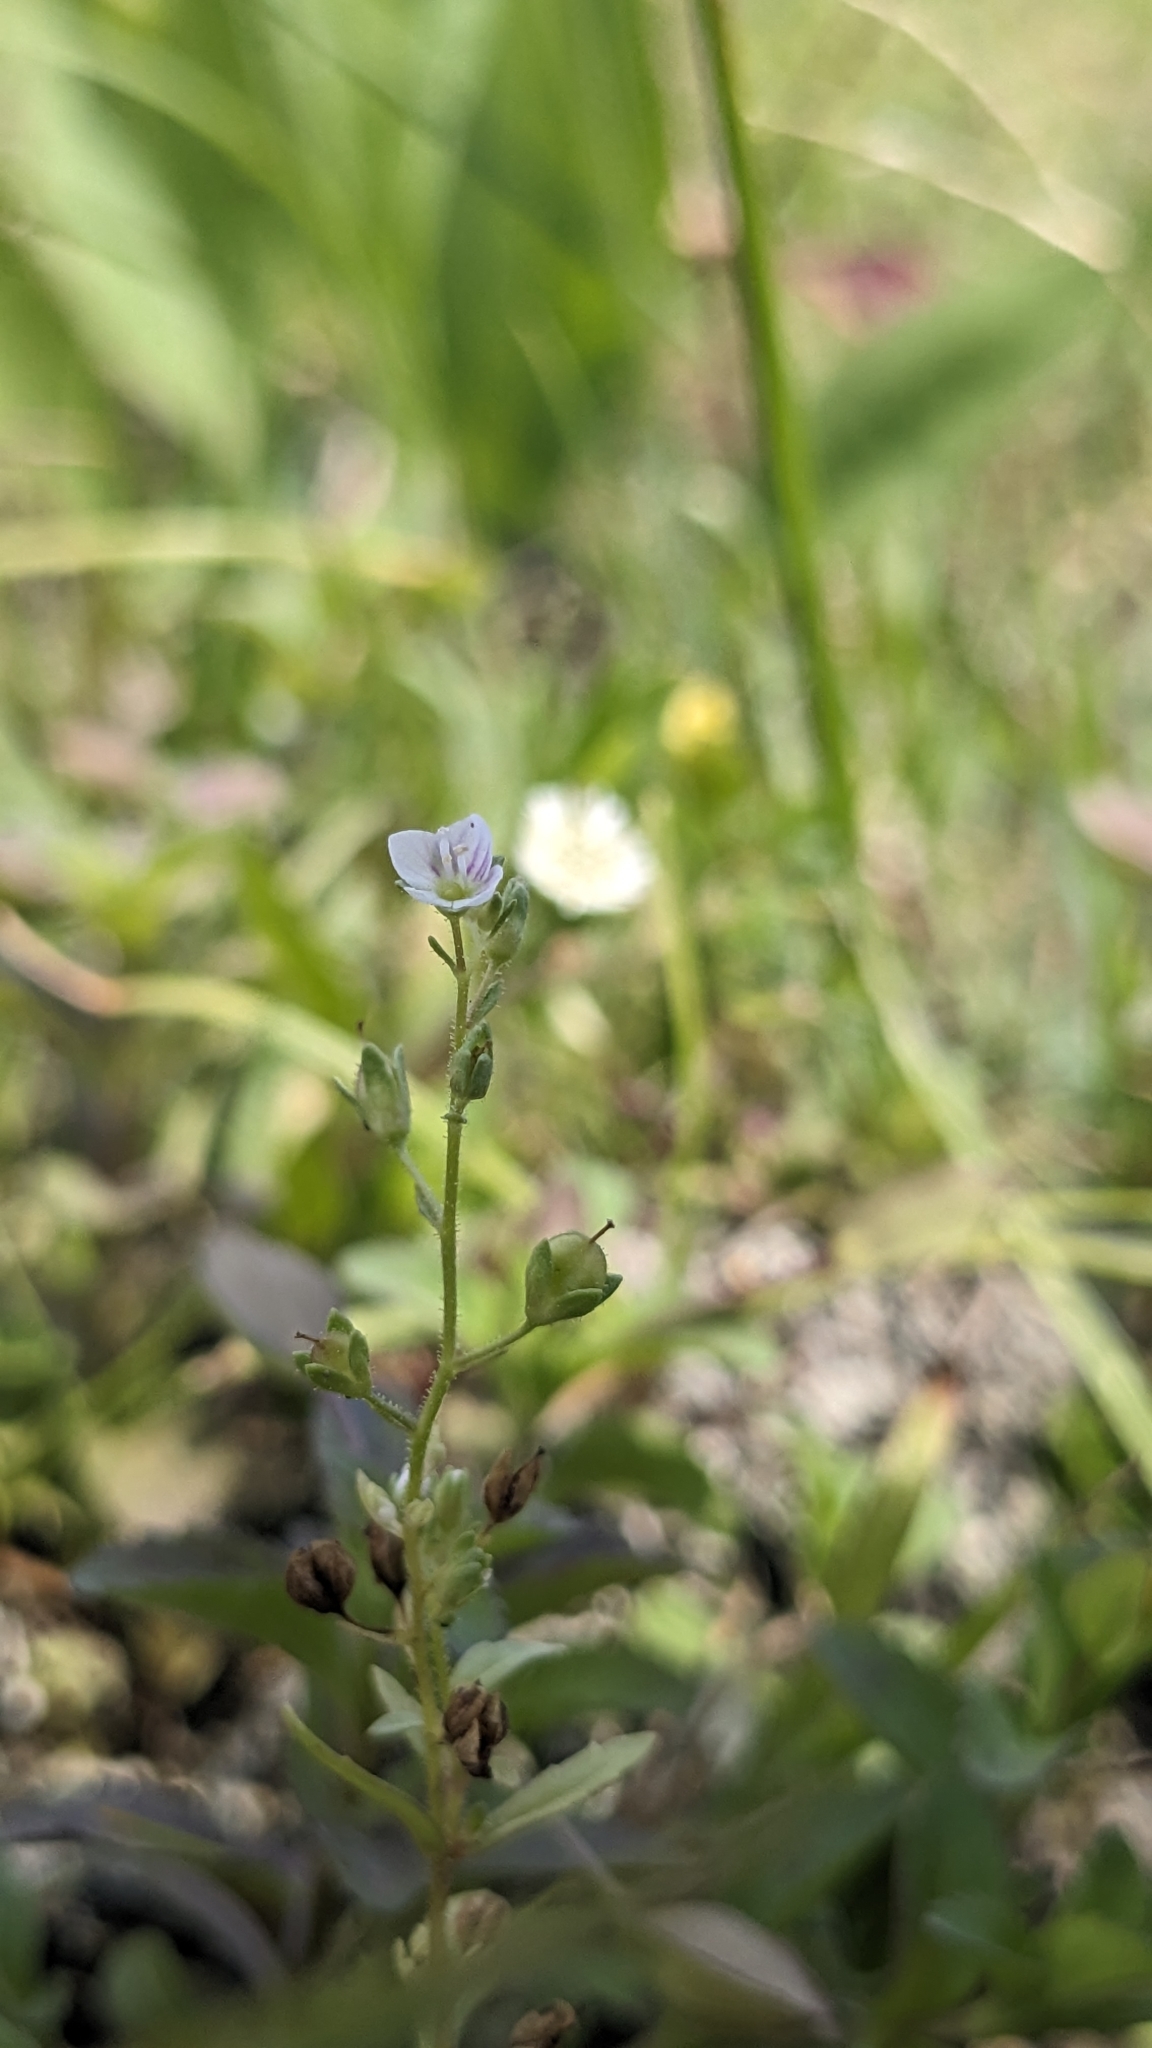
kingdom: Plantae
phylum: Tracheophyta
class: Magnoliopsida
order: Lamiales
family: Plantaginaceae
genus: Veronica
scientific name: Veronica undulata
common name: Undulate speedwell
